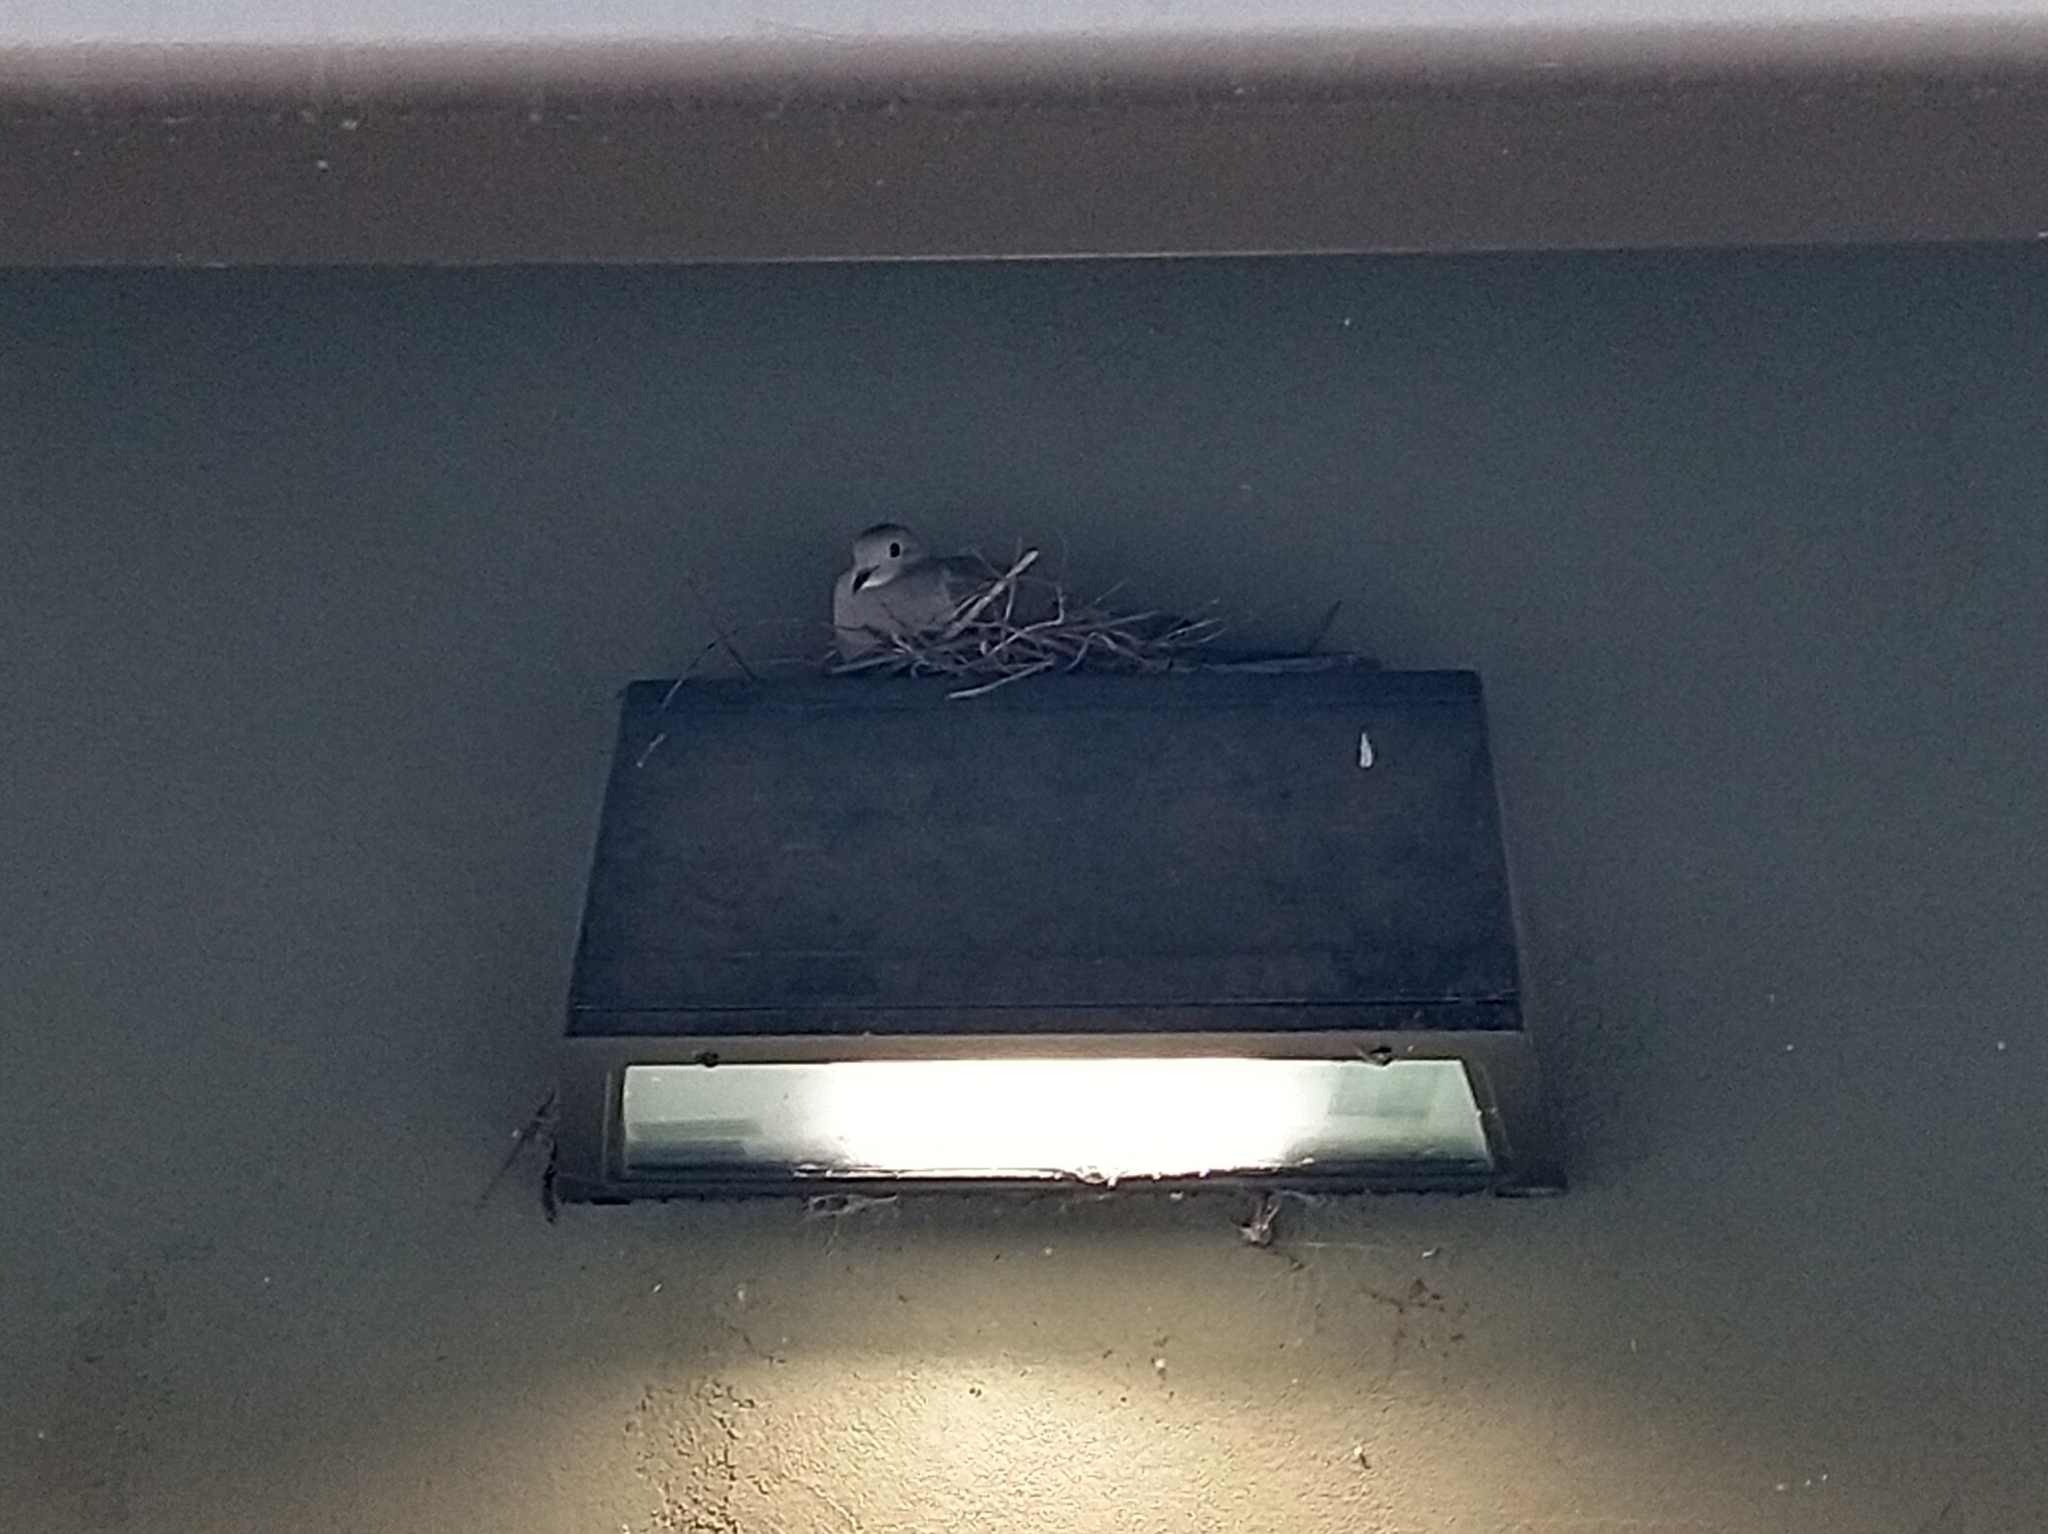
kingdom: Animalia
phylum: Chordata
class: Aves
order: Columbiformes
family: Columbidae
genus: Zenaida
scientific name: Zenaida macroura
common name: Mourning dove
